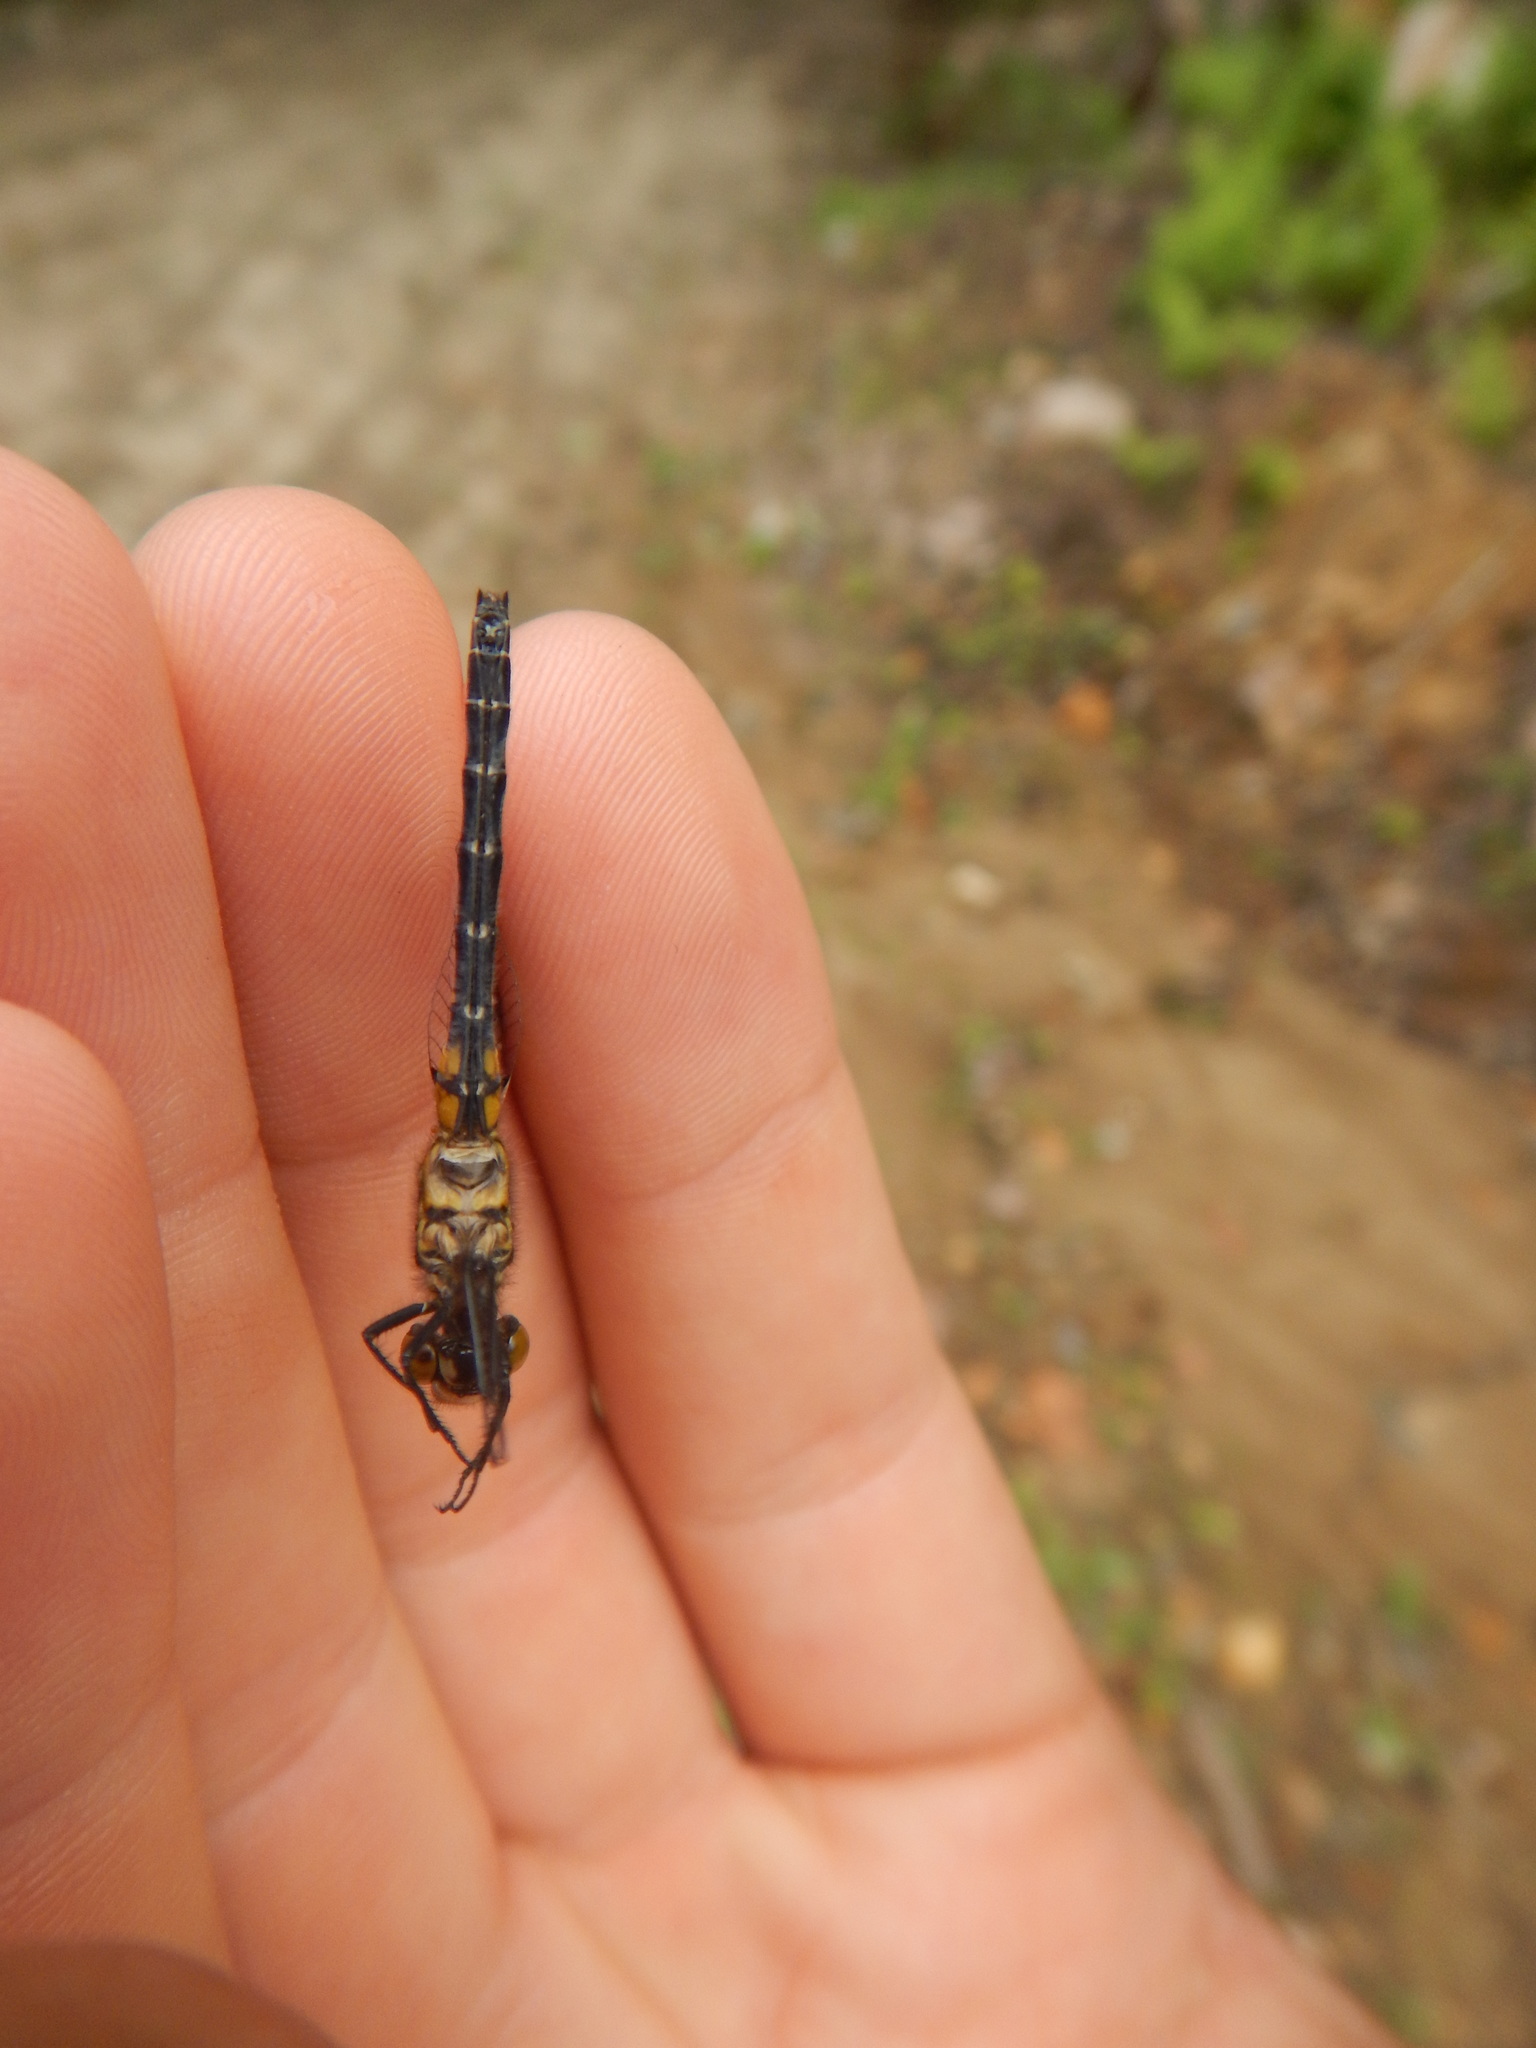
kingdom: Animalia
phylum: Arthropoda
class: Insecta
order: Odonata
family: Libellulidae
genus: Leucorrhinia
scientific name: Leucorrhinia hudsonica
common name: Hudsonian whiteface
